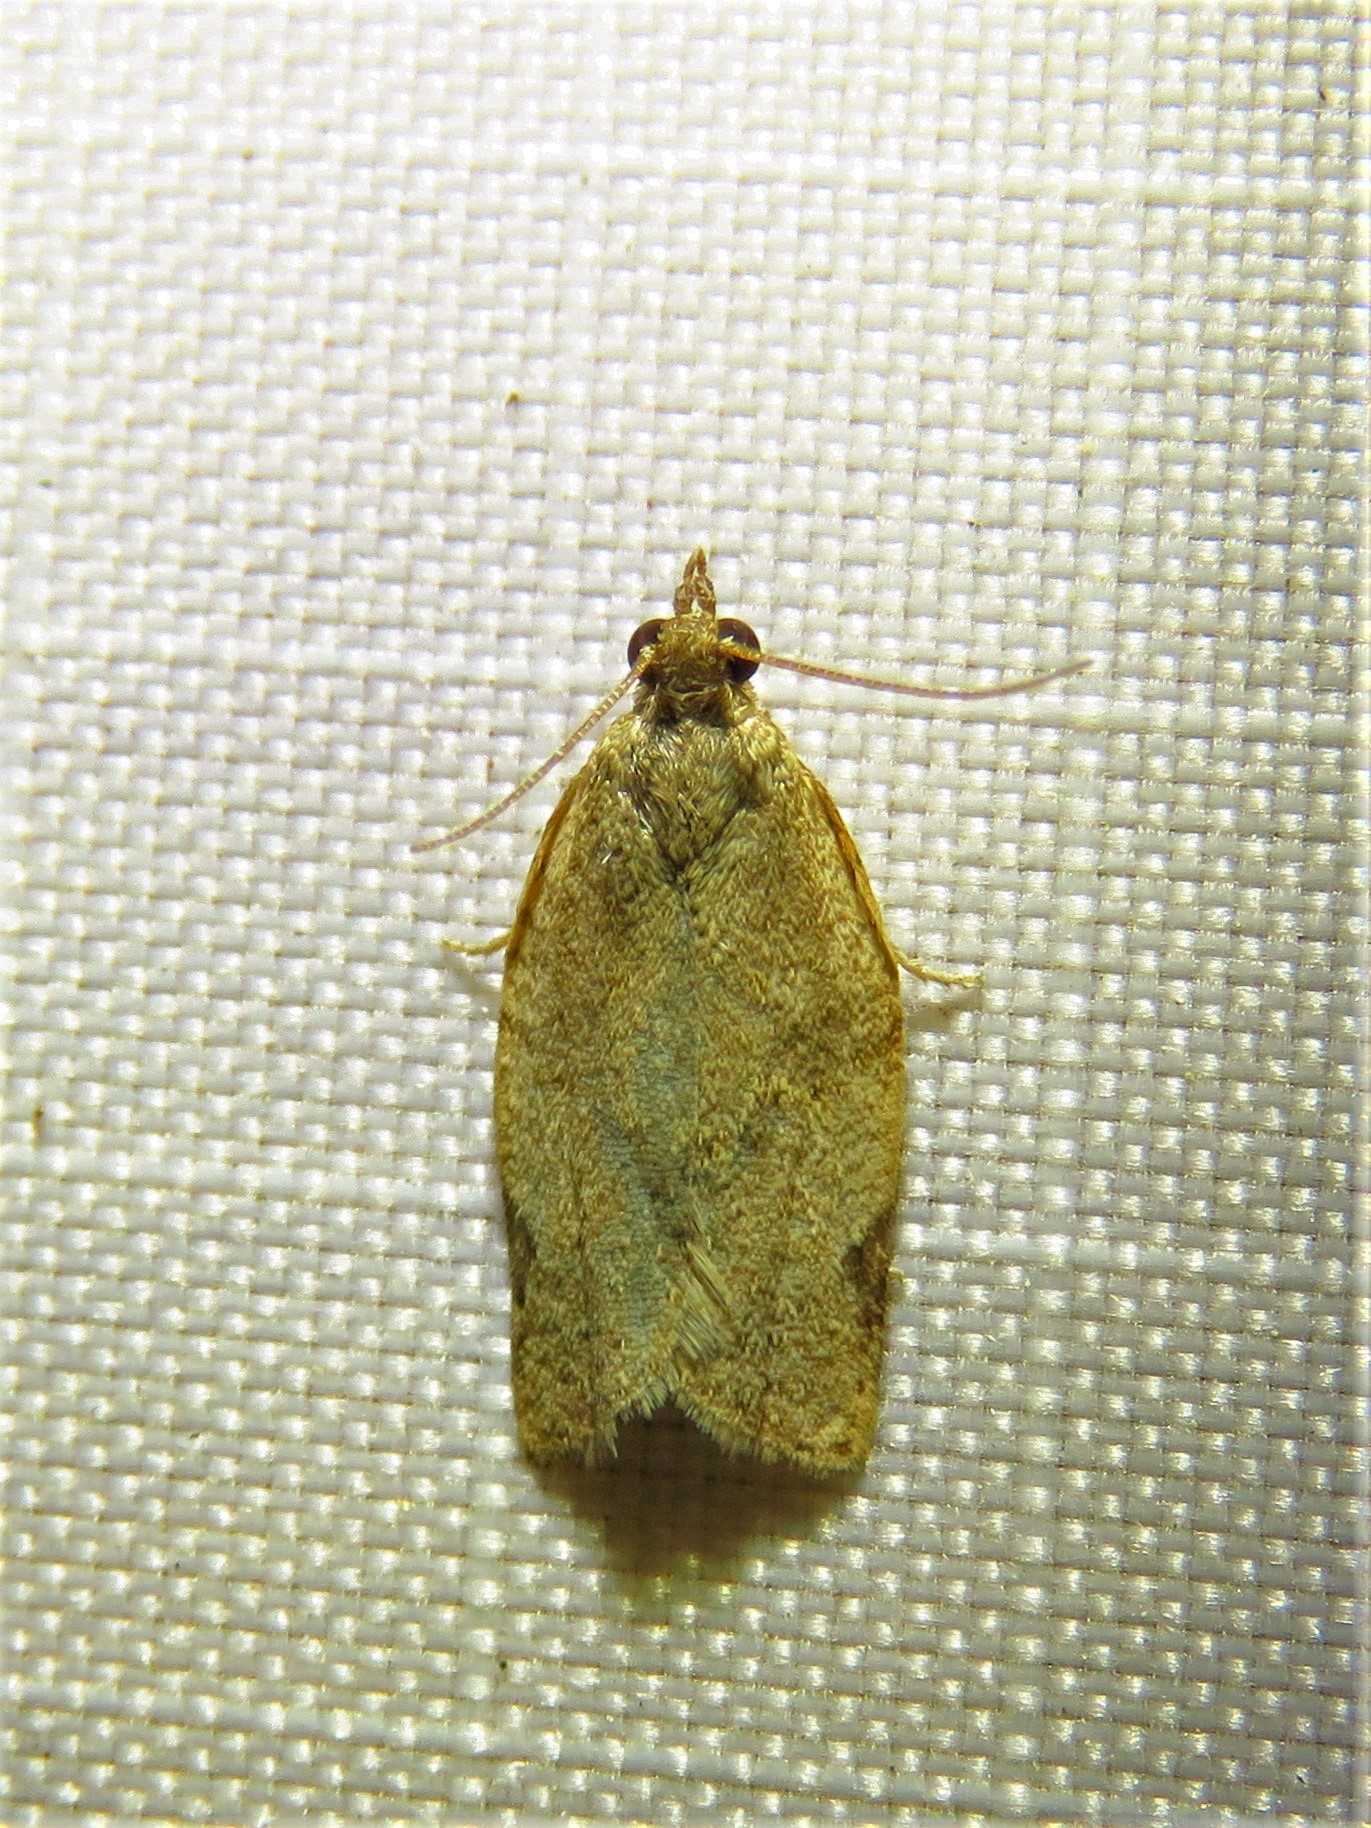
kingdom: Animalia
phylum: Arthropoda
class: Insecta
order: Lepidoptera
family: Tortricidae
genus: Clepsis
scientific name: Clepsis virescana
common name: Greenish apple moth
